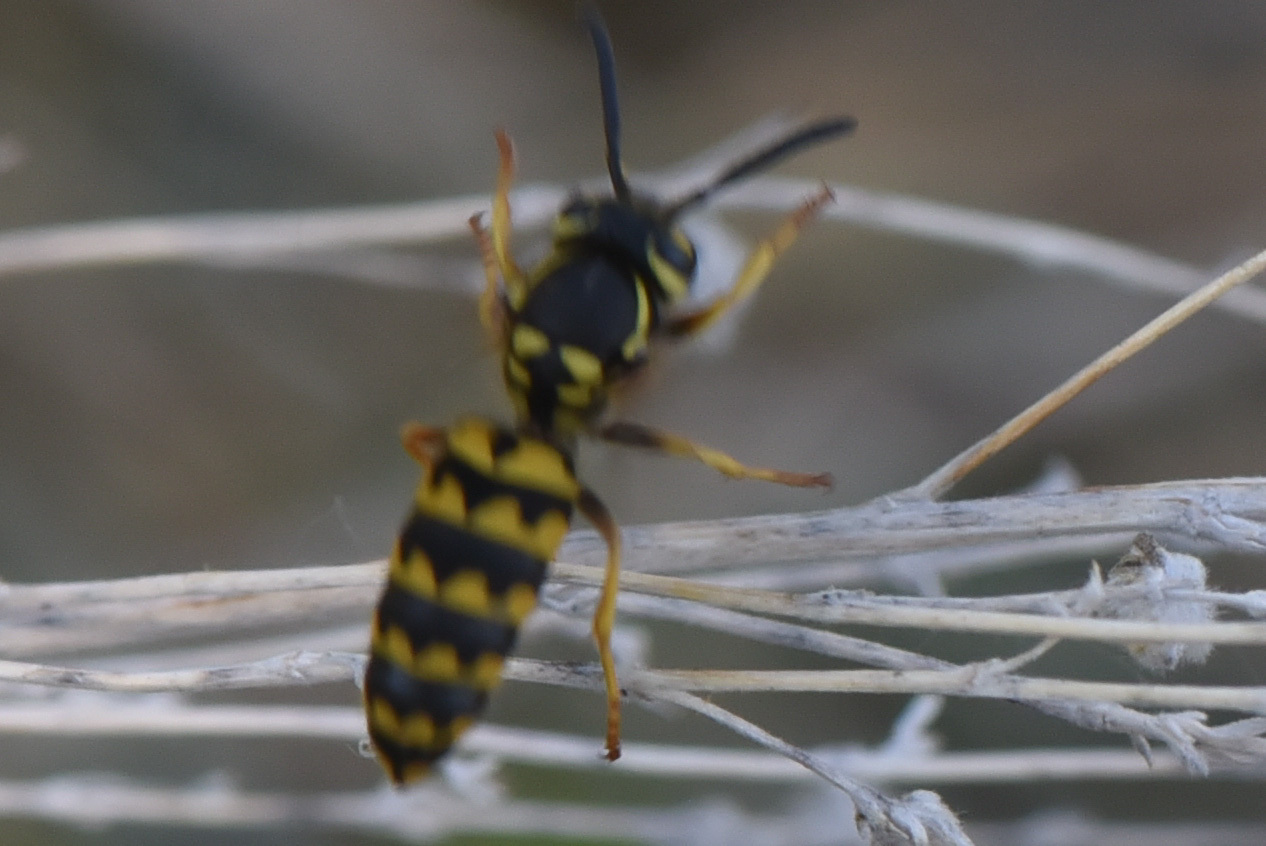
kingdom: Animalia
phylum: Arthropoda
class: Insecta
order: Hymenoptera
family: Vespidae
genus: Vespula
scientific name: Vespula pensylvanica
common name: Western yellowjacket
